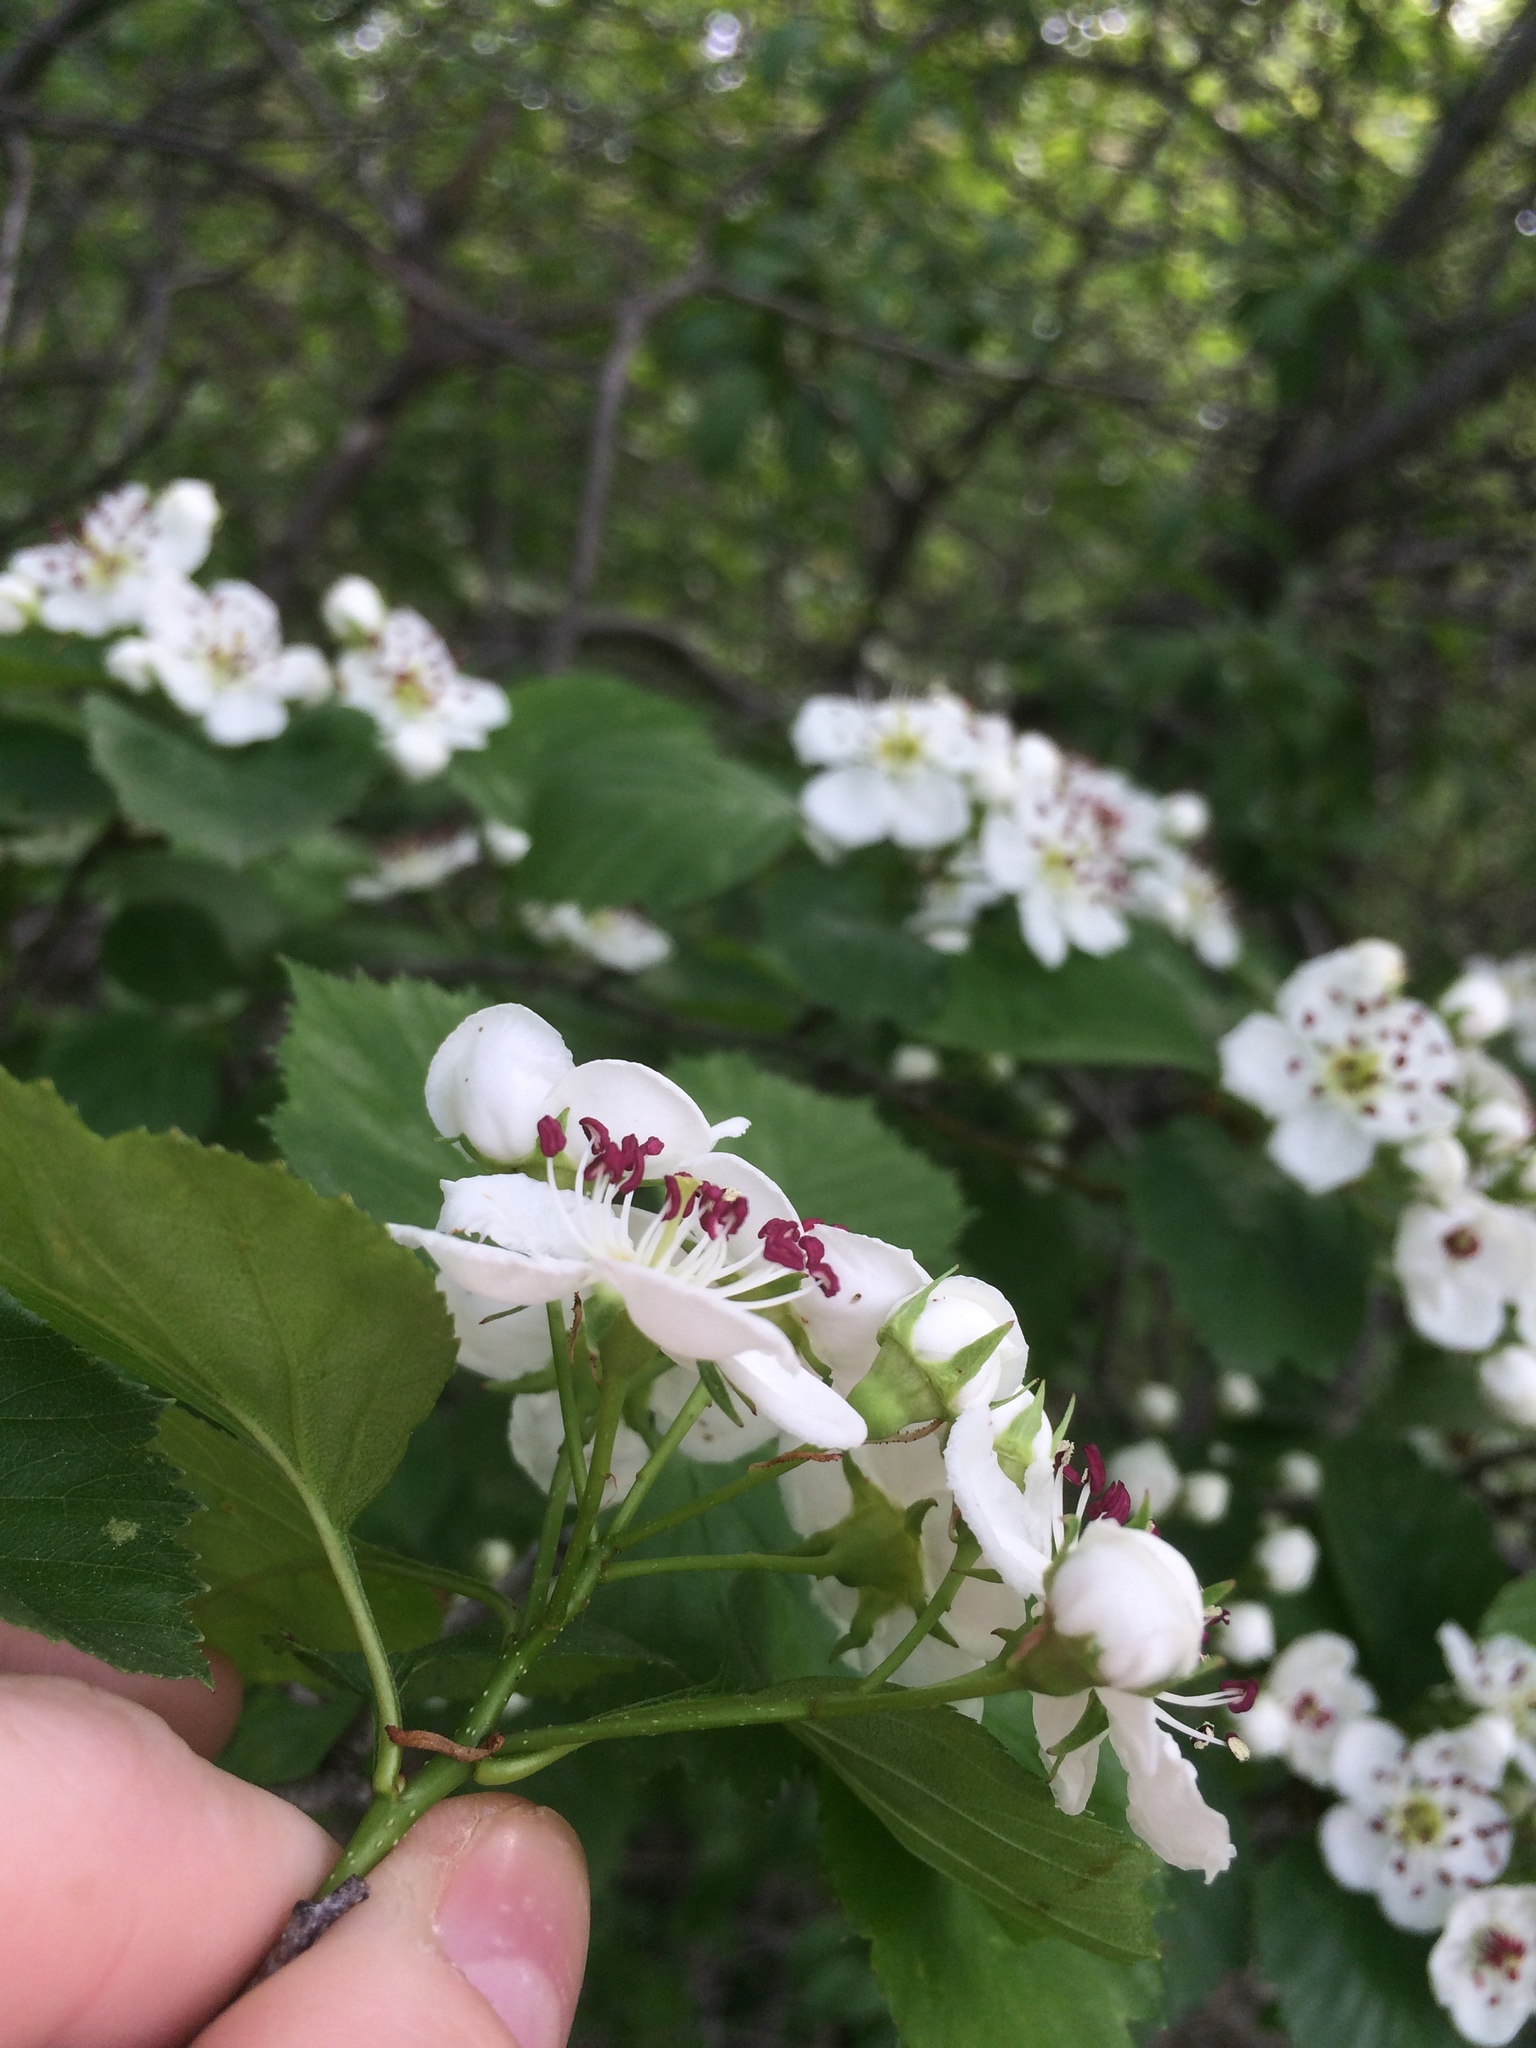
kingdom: Plantae
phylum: Tracheophyta
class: Magnoliopsida
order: Rosales
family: Rosaceae
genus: Crataegus
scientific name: Crataegus suborbiculata
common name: Caughnawaga hawthorn
